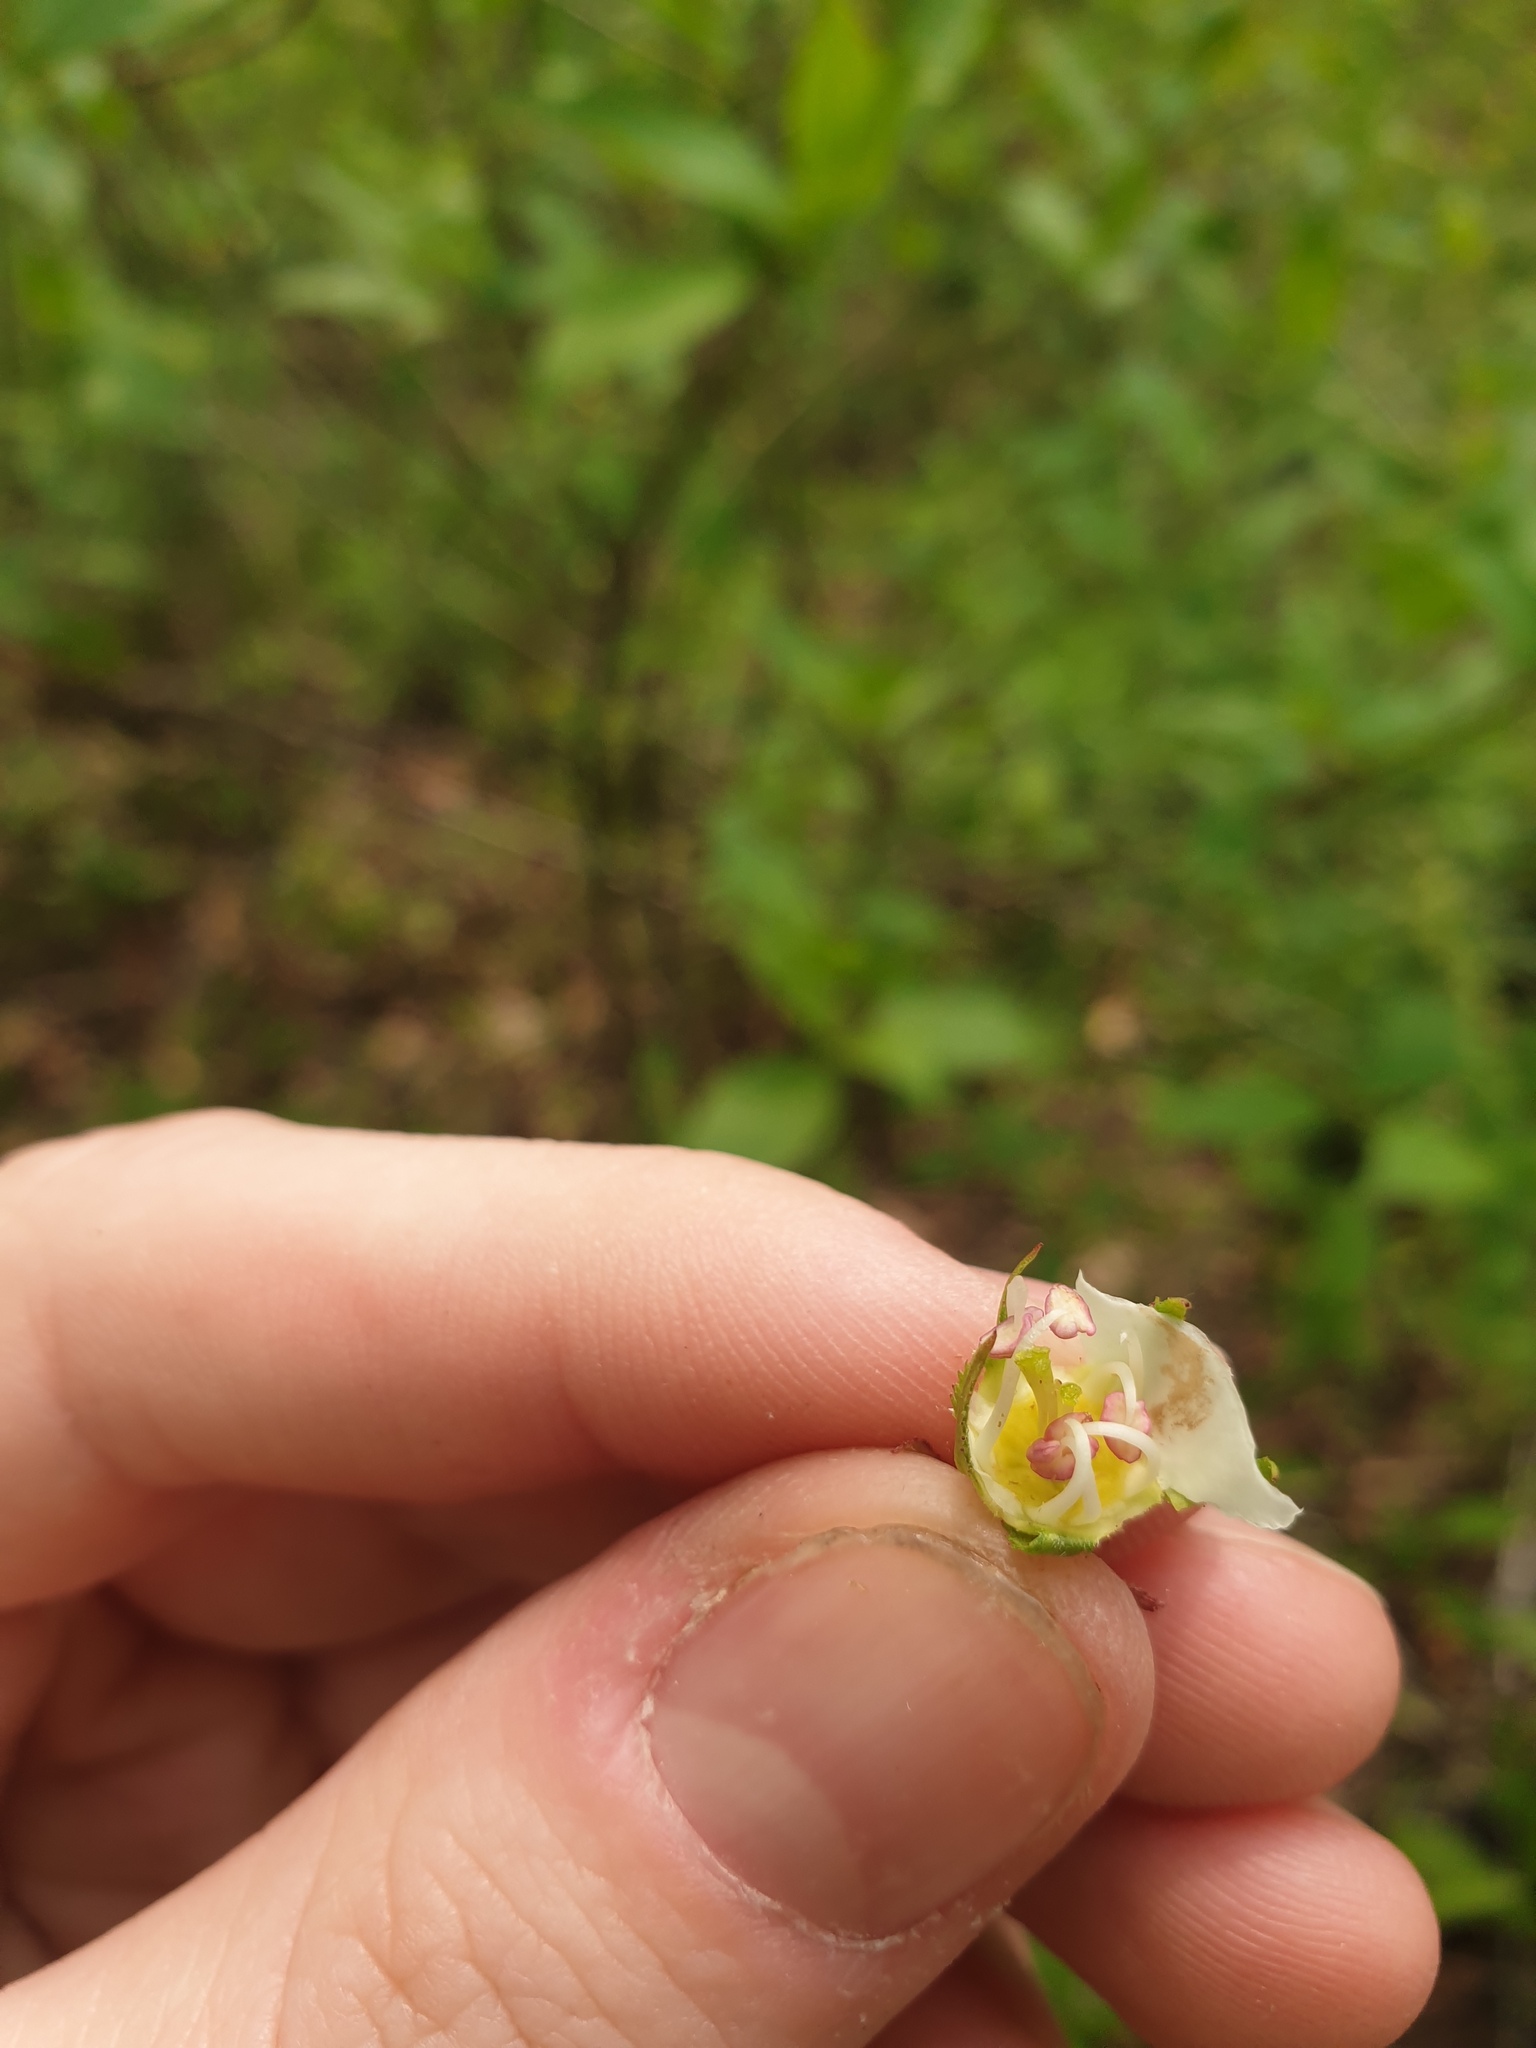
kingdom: Plantae
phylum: Tracheophyta
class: Magnoliopsida
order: Rosales
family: Rosaceae
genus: Crataegus
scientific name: Crataegus coccinea
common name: Scarlet hawthorn
